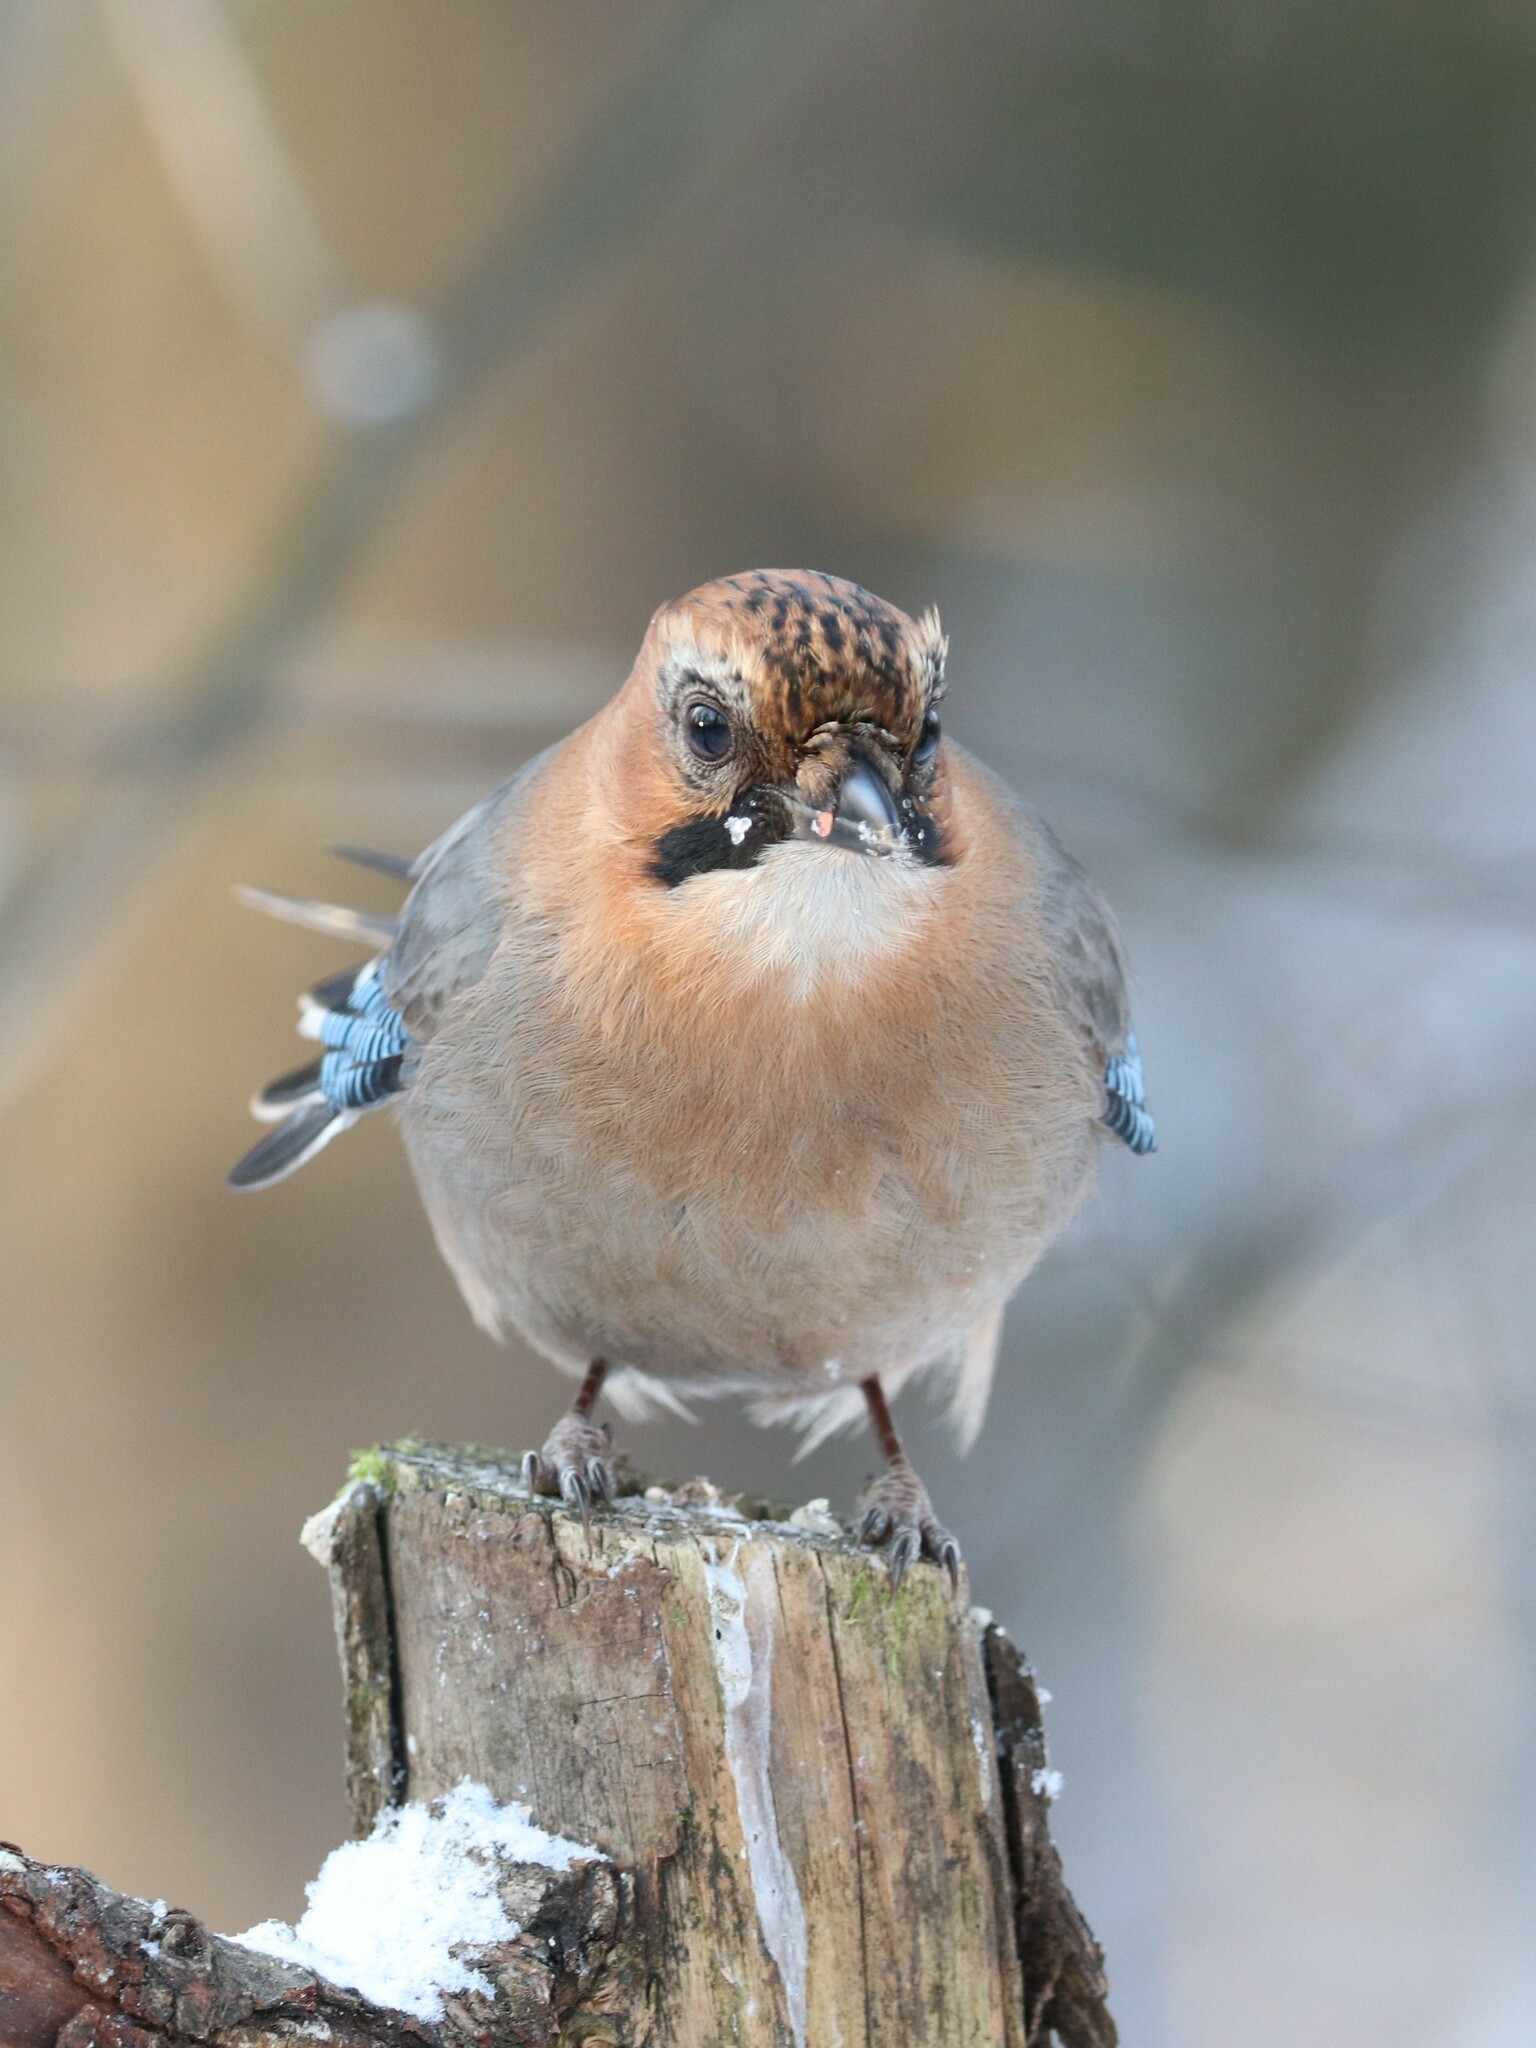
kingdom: Animalia
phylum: Chordata
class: Aves
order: Passeriformes
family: Corvidae
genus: Garrulus
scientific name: Garrulus glandarius
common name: Eurasian jay
